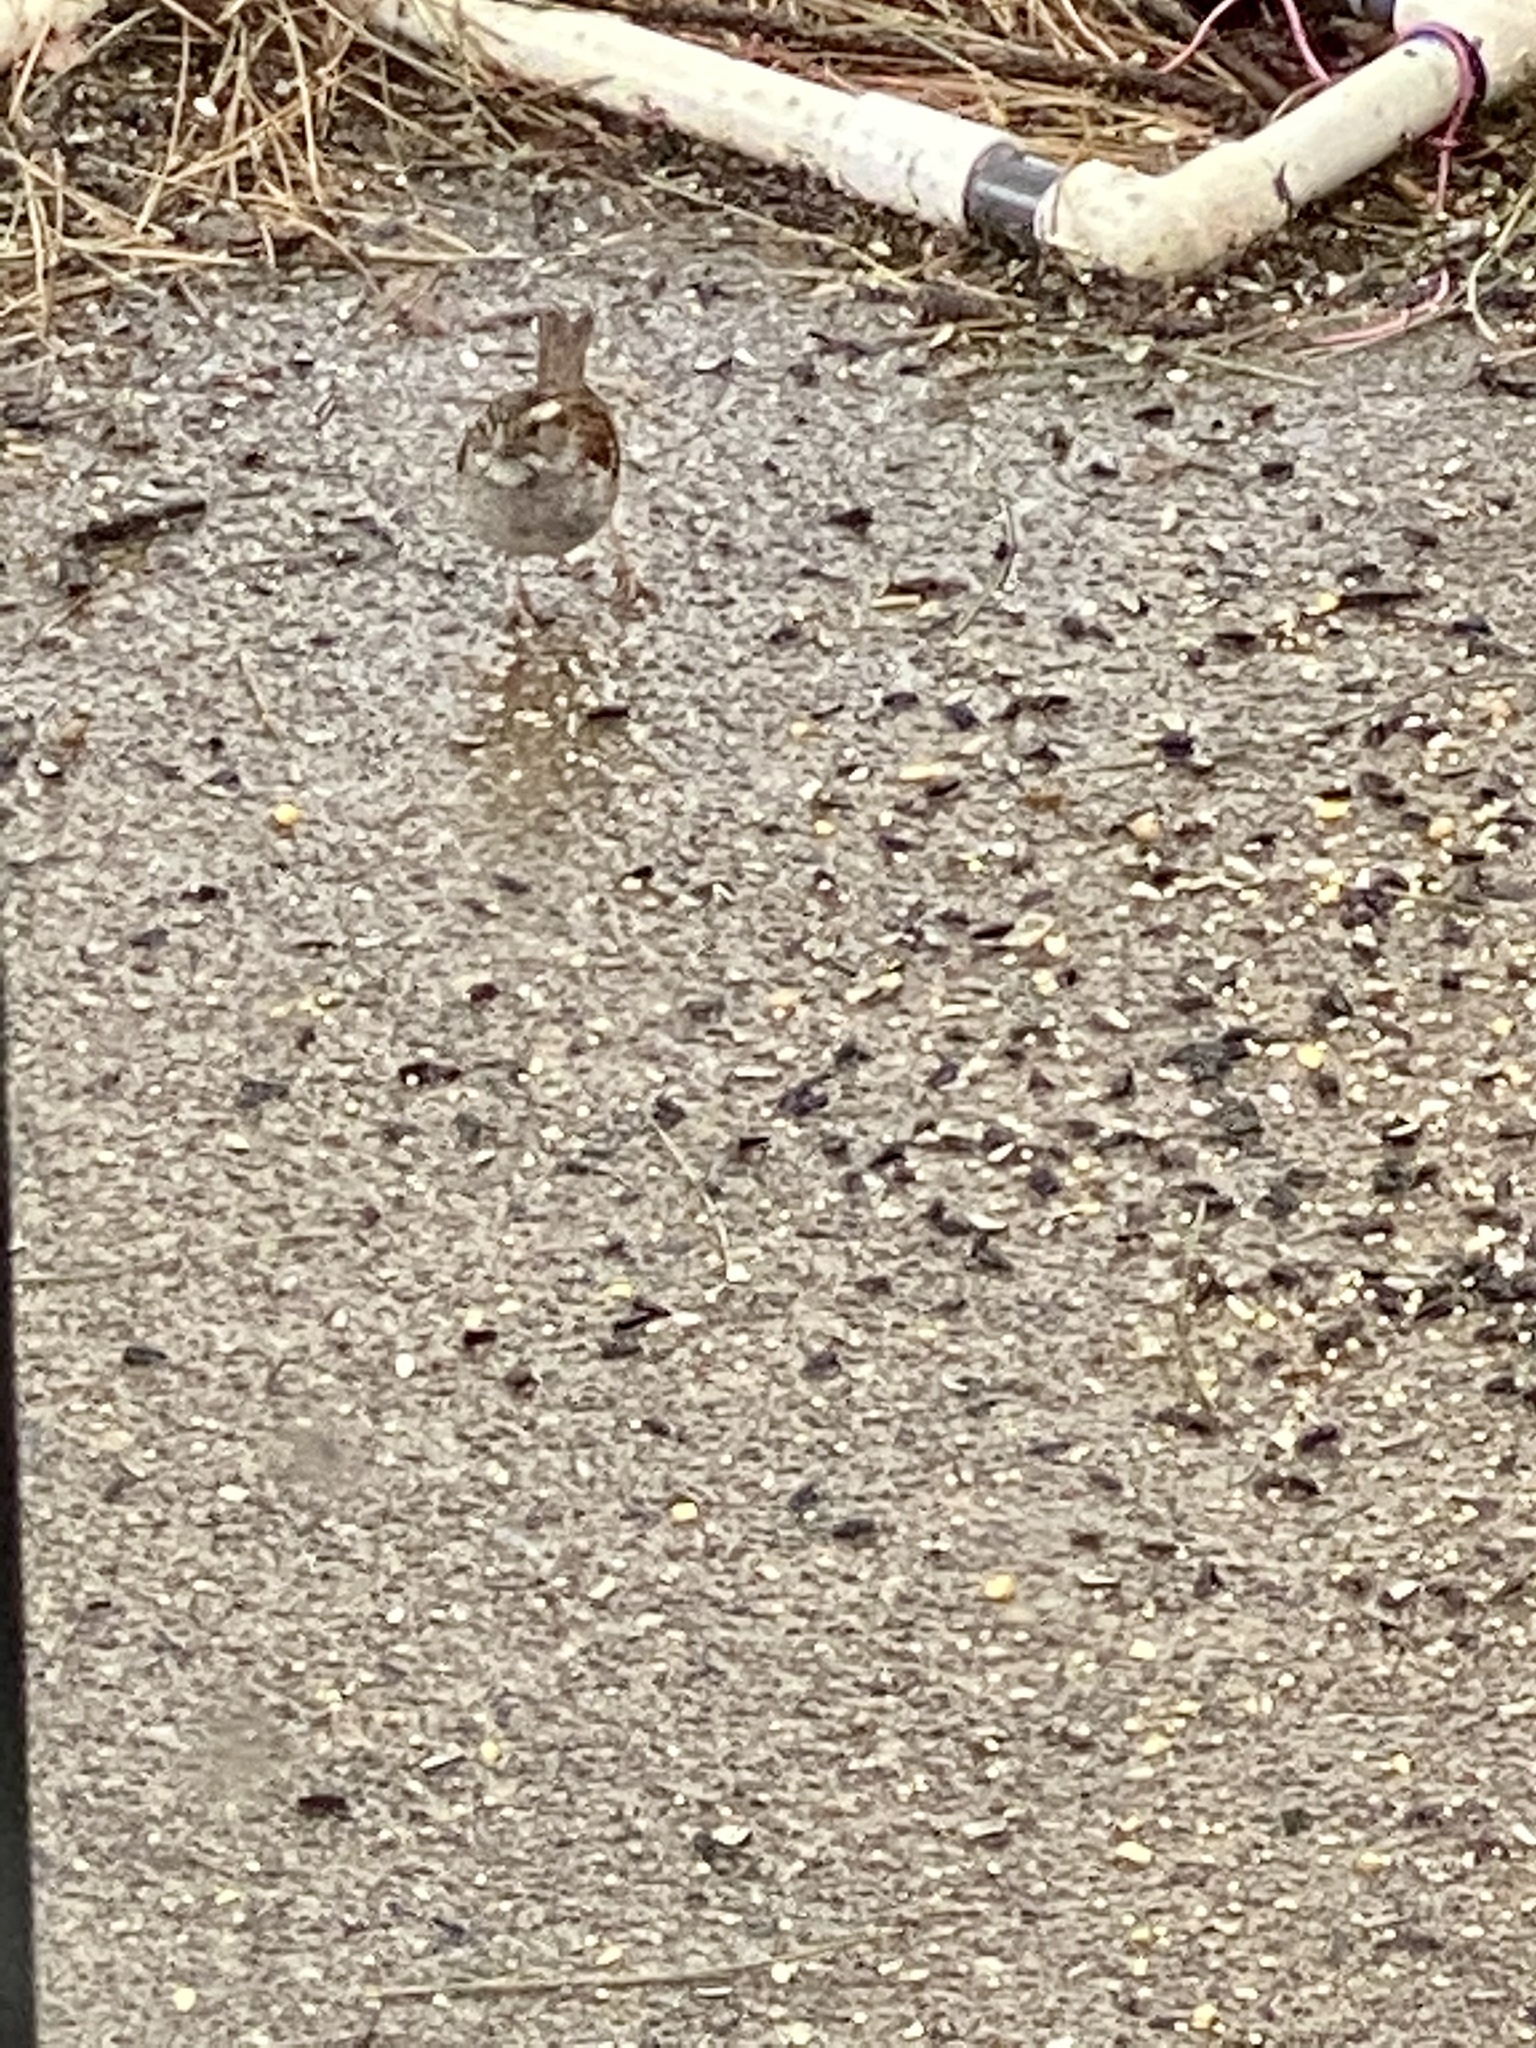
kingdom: Animalia
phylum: Chordata
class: Aves
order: Passeriformes
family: Passerellidae
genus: Zonotrichia
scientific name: Zonotrichia albicollis
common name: White-throated sparrow
